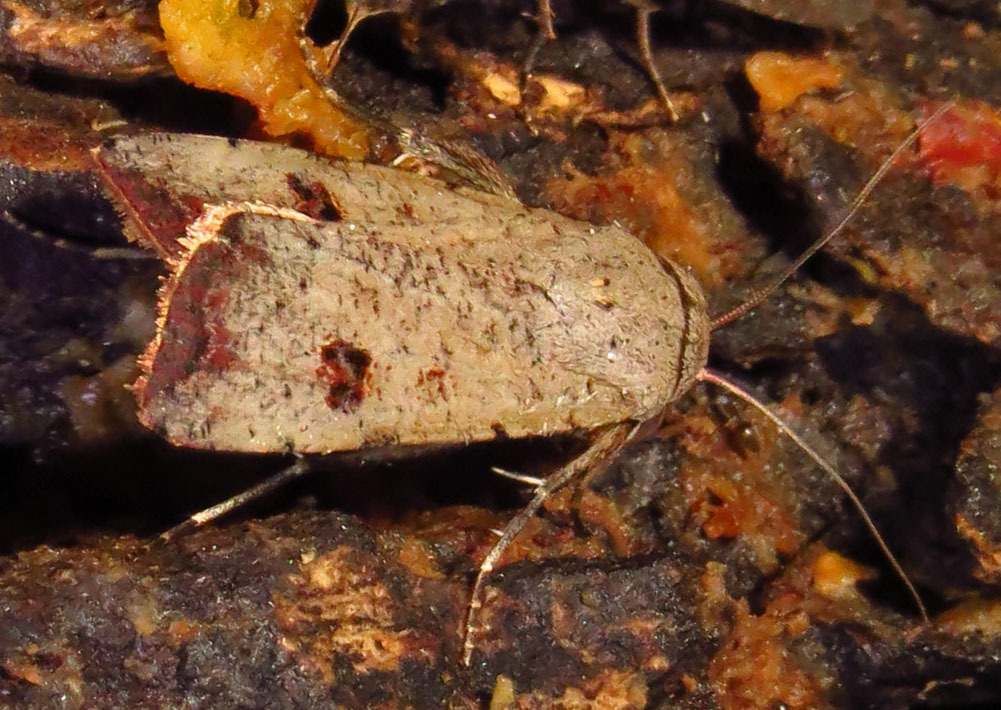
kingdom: Animalia
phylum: Arthropoda
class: Insecta
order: Lepidoptera
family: Noctuidae
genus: Anicla
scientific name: Anicla infecta
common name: Green cutworm
